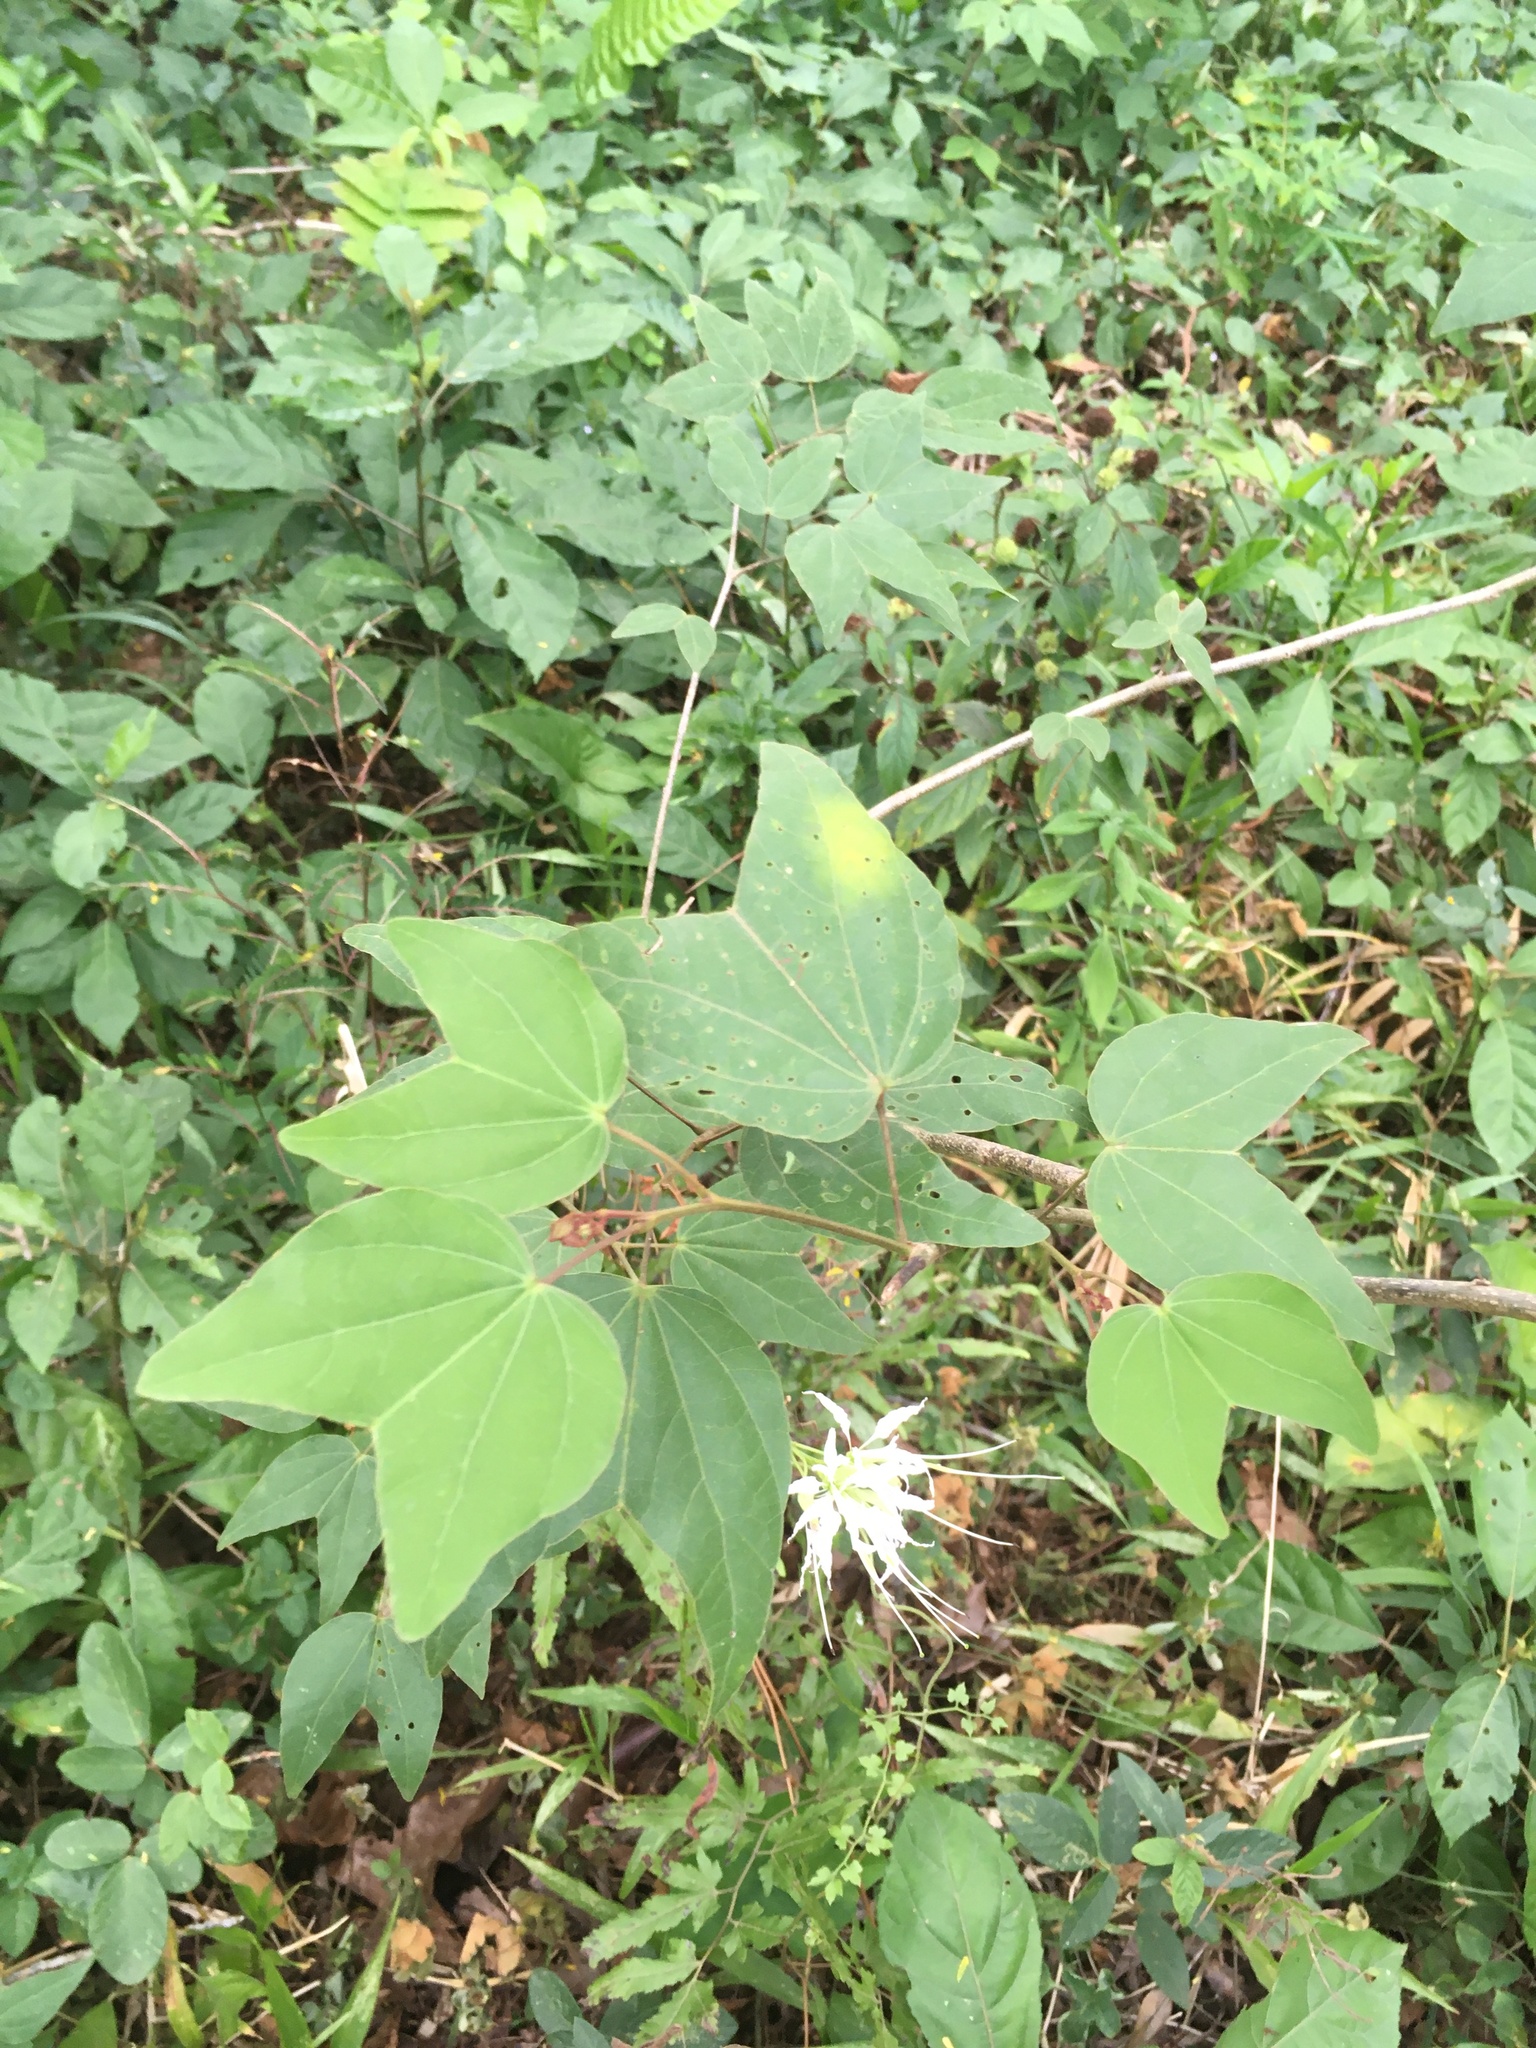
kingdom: Plantae
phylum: Tracheophyta
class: Magnoliopsida
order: Fabales
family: Fabaceae
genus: Bauhinia
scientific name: Bauhinia divaricata
